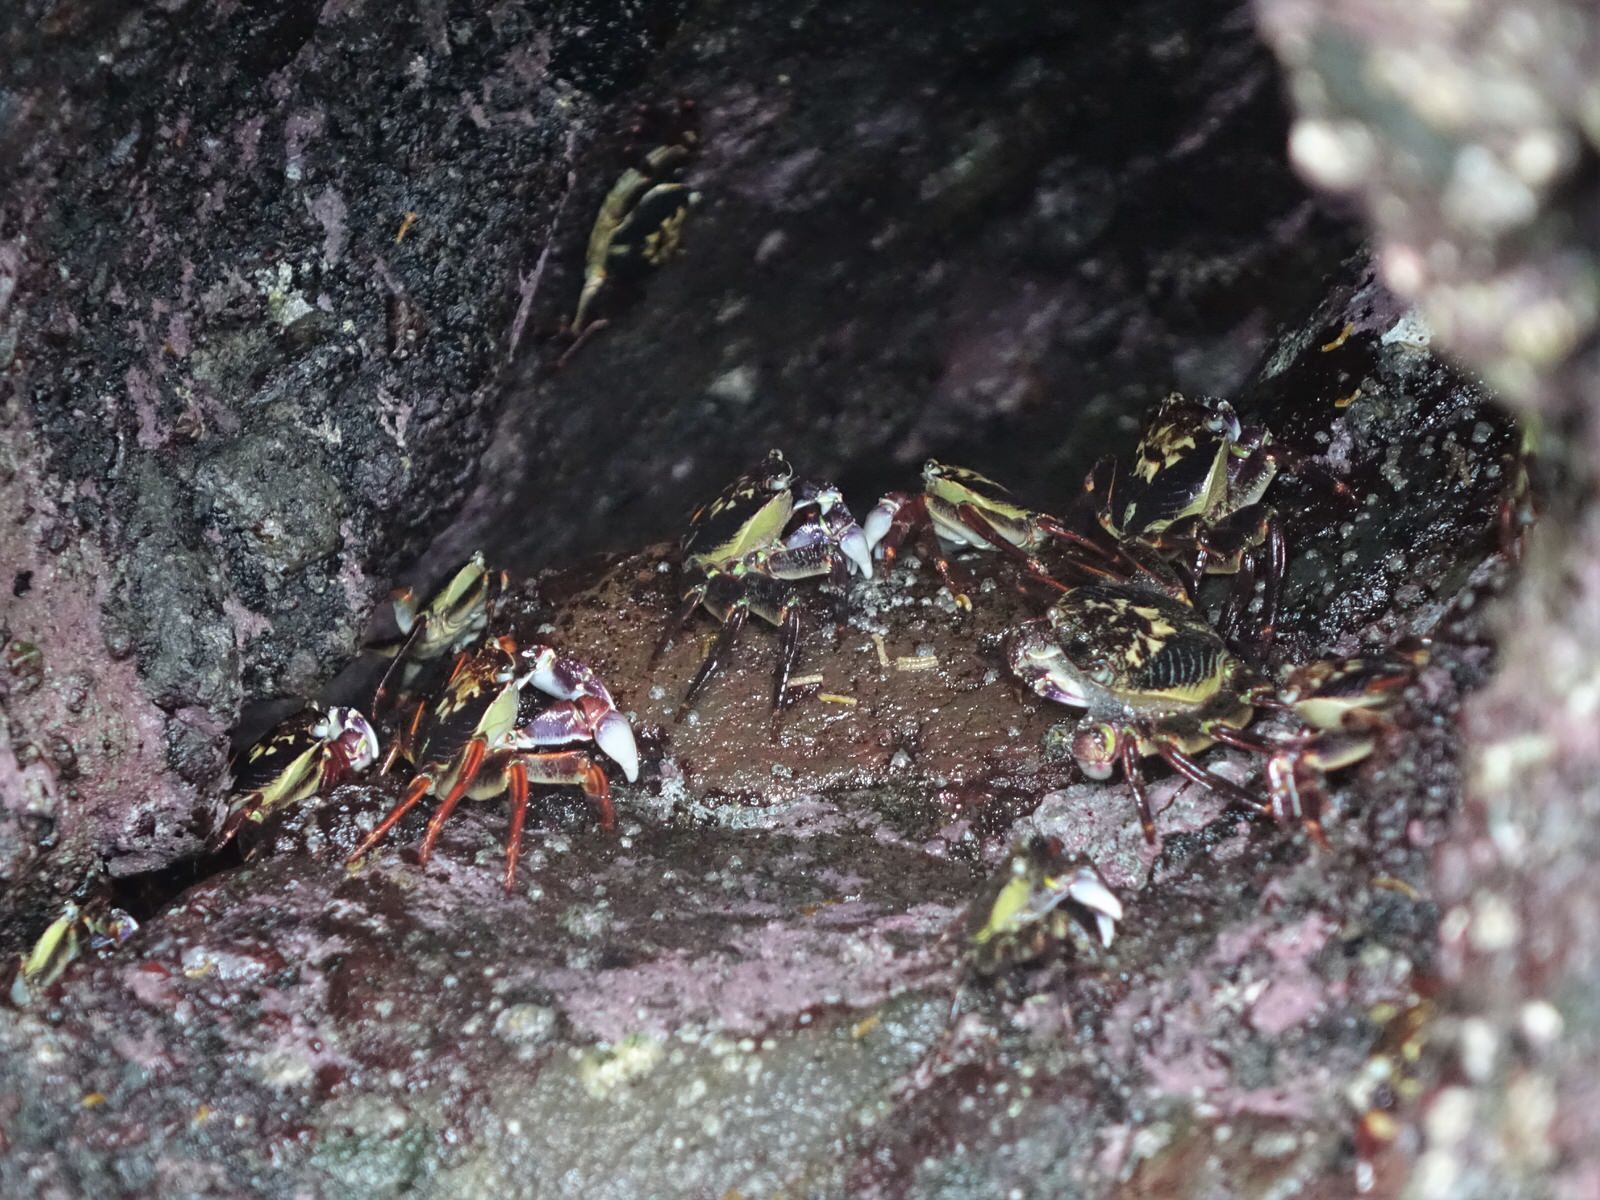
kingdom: Animalia
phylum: Arthropoda
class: Malacostraca
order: Decapoda
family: Grapsidae
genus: Leptograpsus
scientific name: Leptograpsus variegatus
